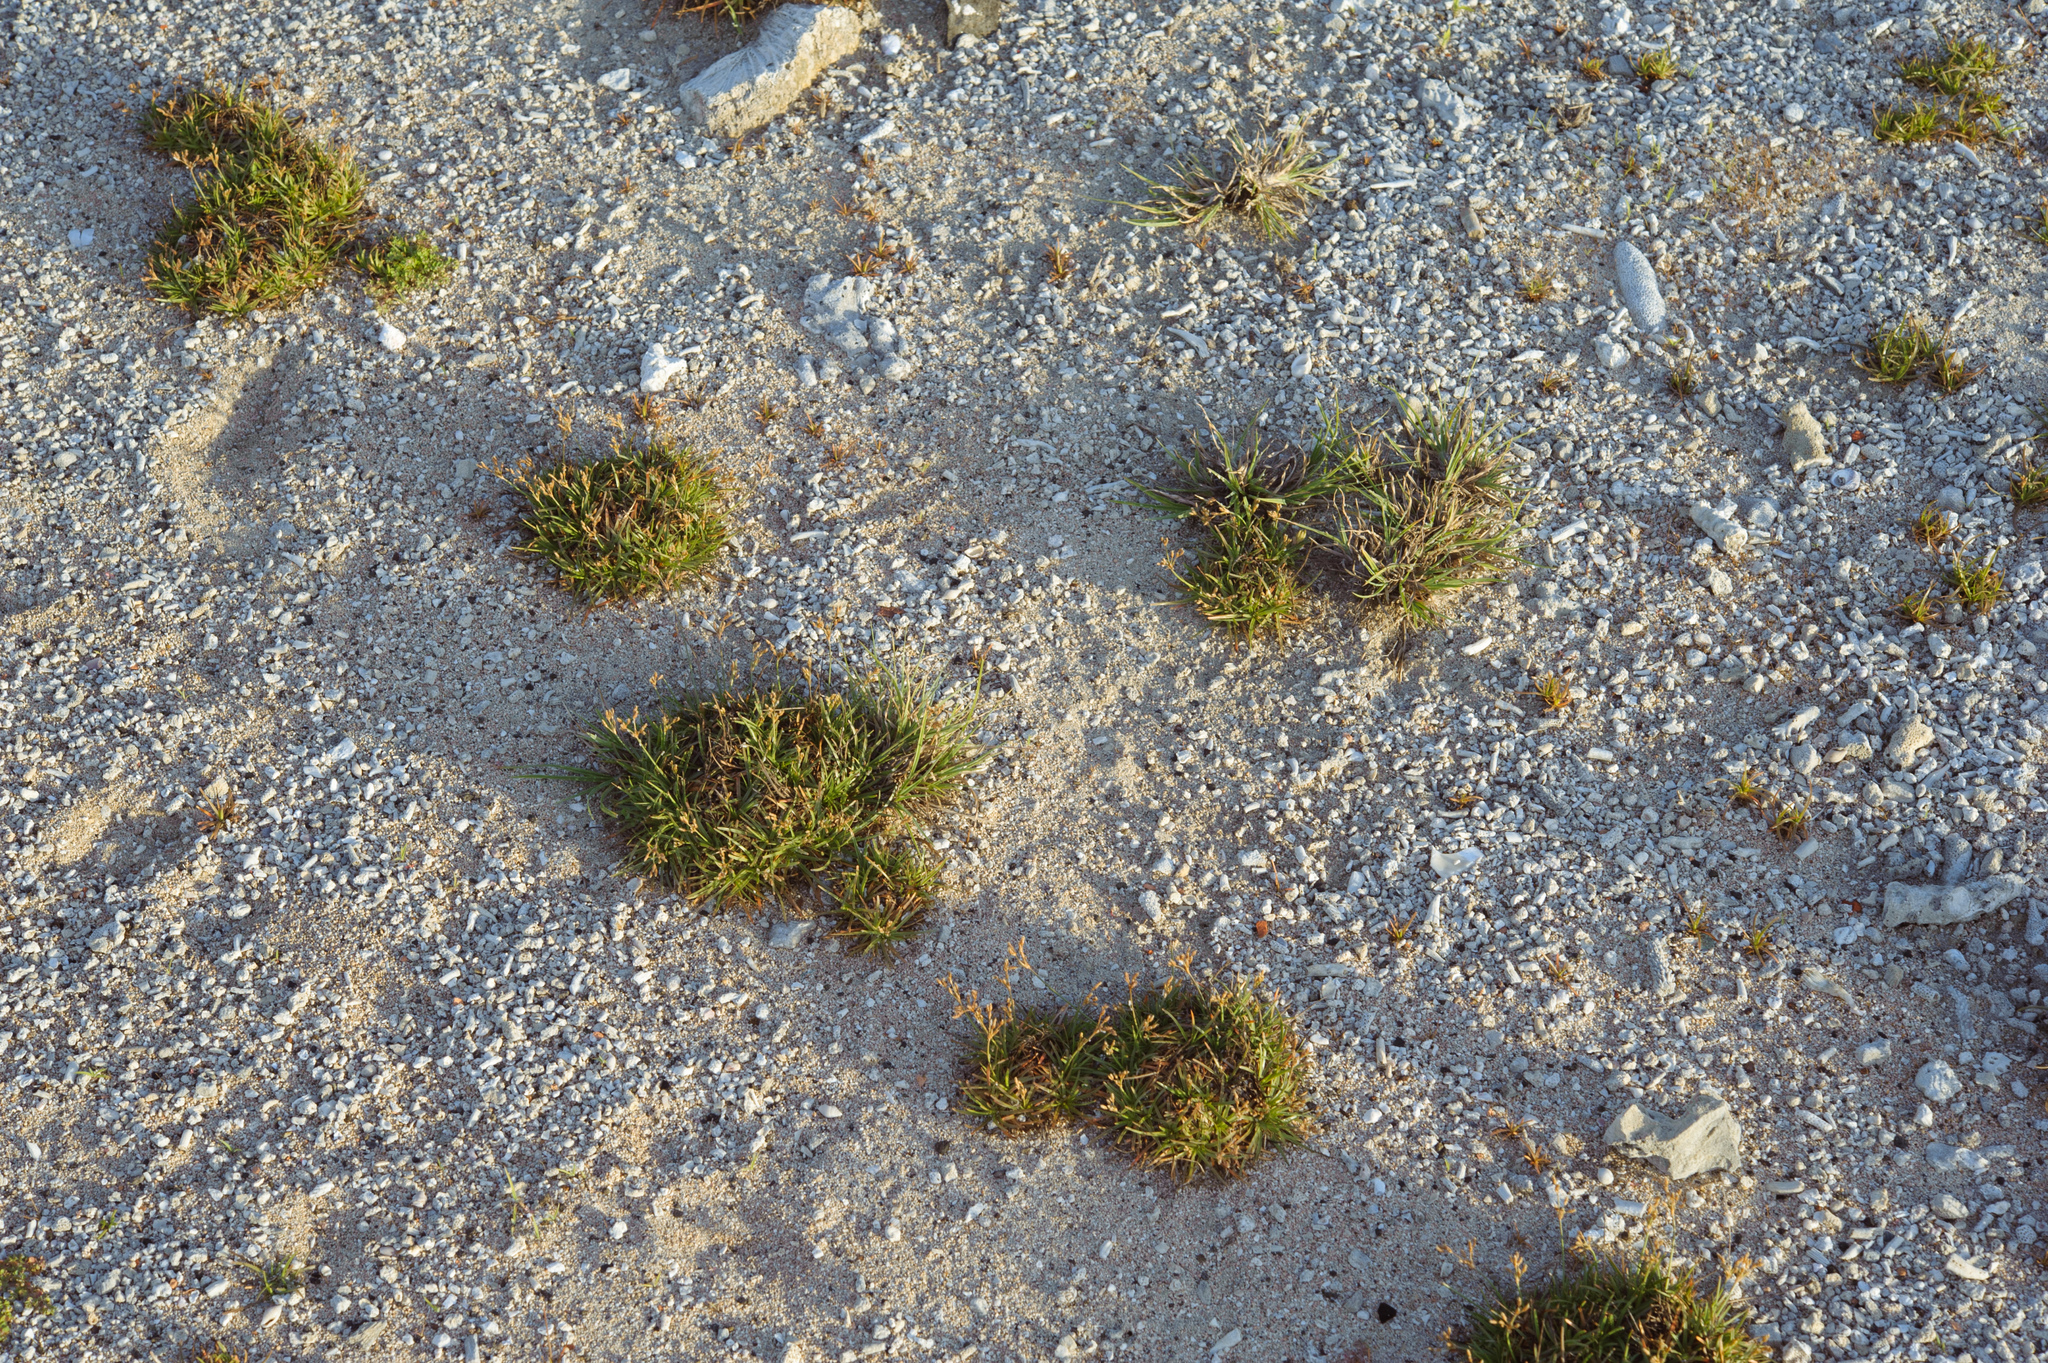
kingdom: Plantae
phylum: Tracheophyta
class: Liliopsida
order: Poales
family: Cyperaceae
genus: Fimbristylis
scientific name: Fimbristylis cymosa
